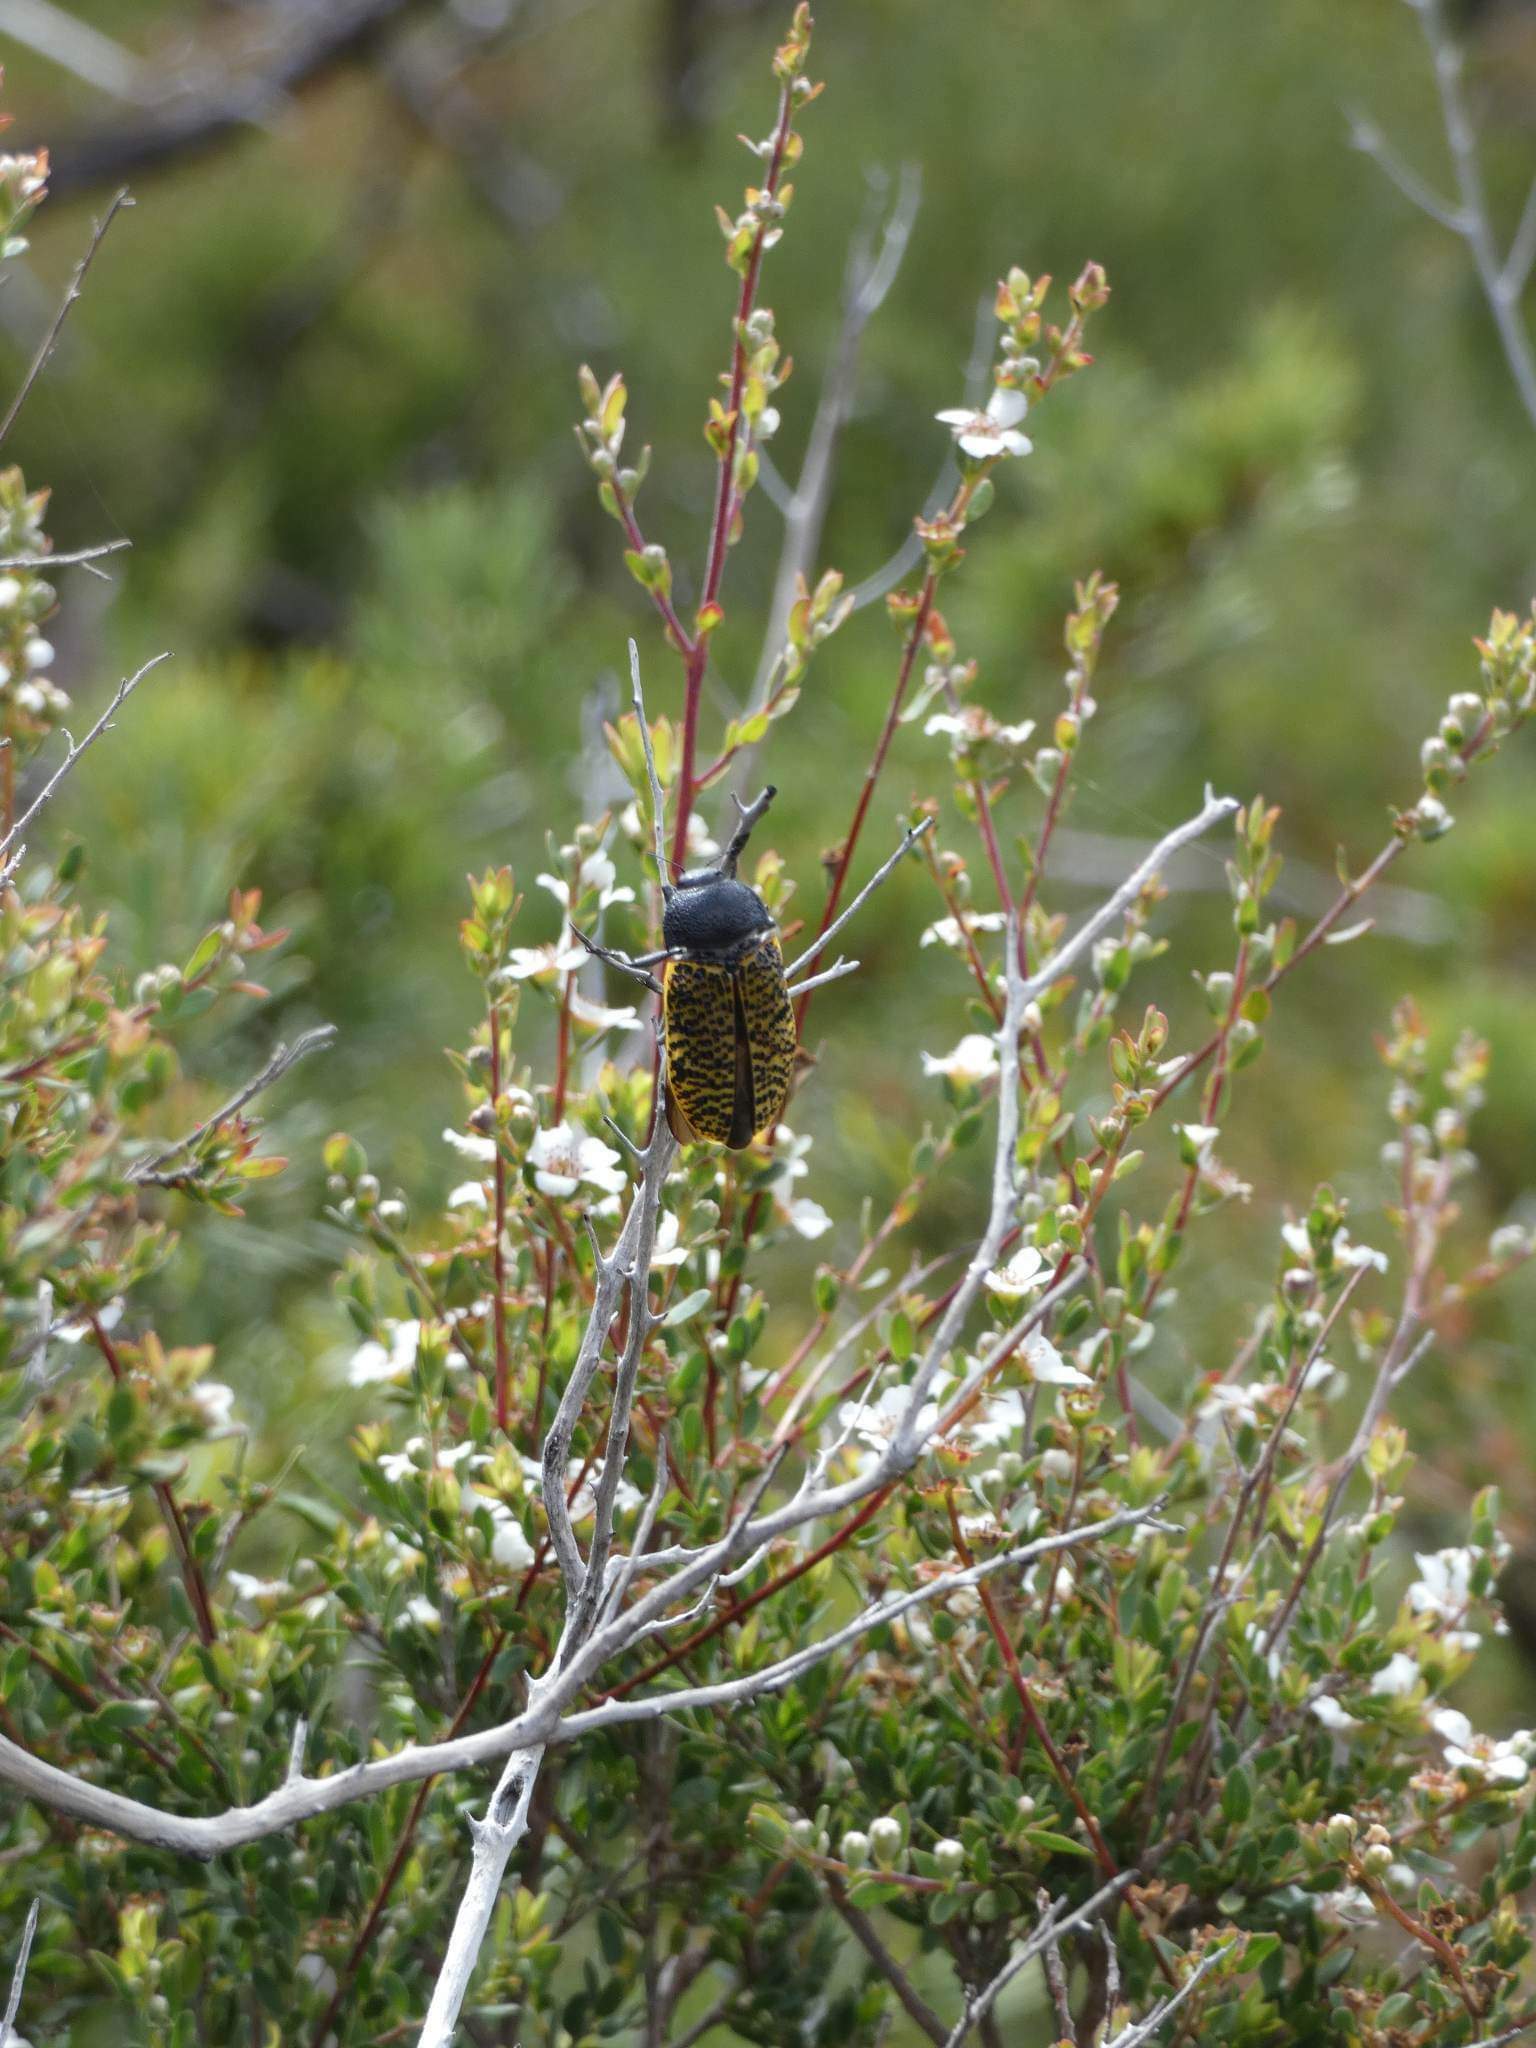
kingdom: Animalia
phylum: Arthropoda
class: Insecta
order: Coleoptera
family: Buprestidae
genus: Stigmodera
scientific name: Stigmodera macularia
